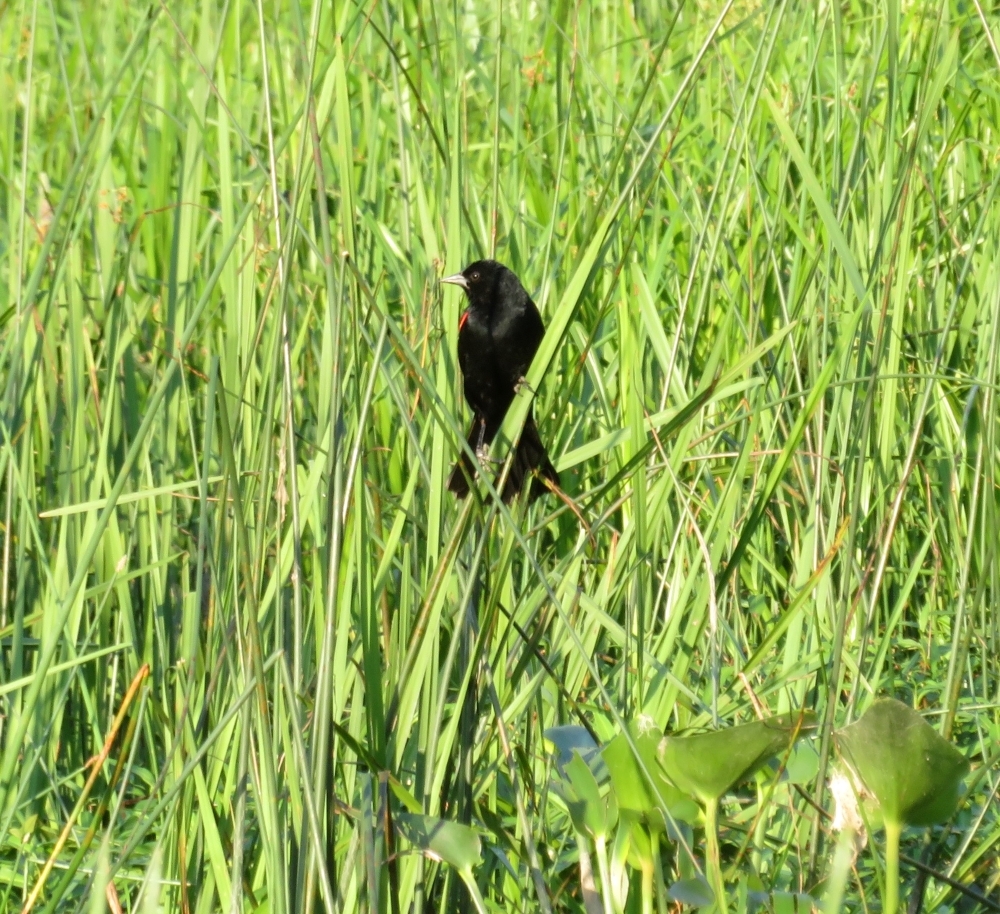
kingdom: Animalia
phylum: Chordata
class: Aves
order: Passeriformes
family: Icteridae
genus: Agelaius
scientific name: Agelaius phoeniceus
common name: Red-winged blackbird
